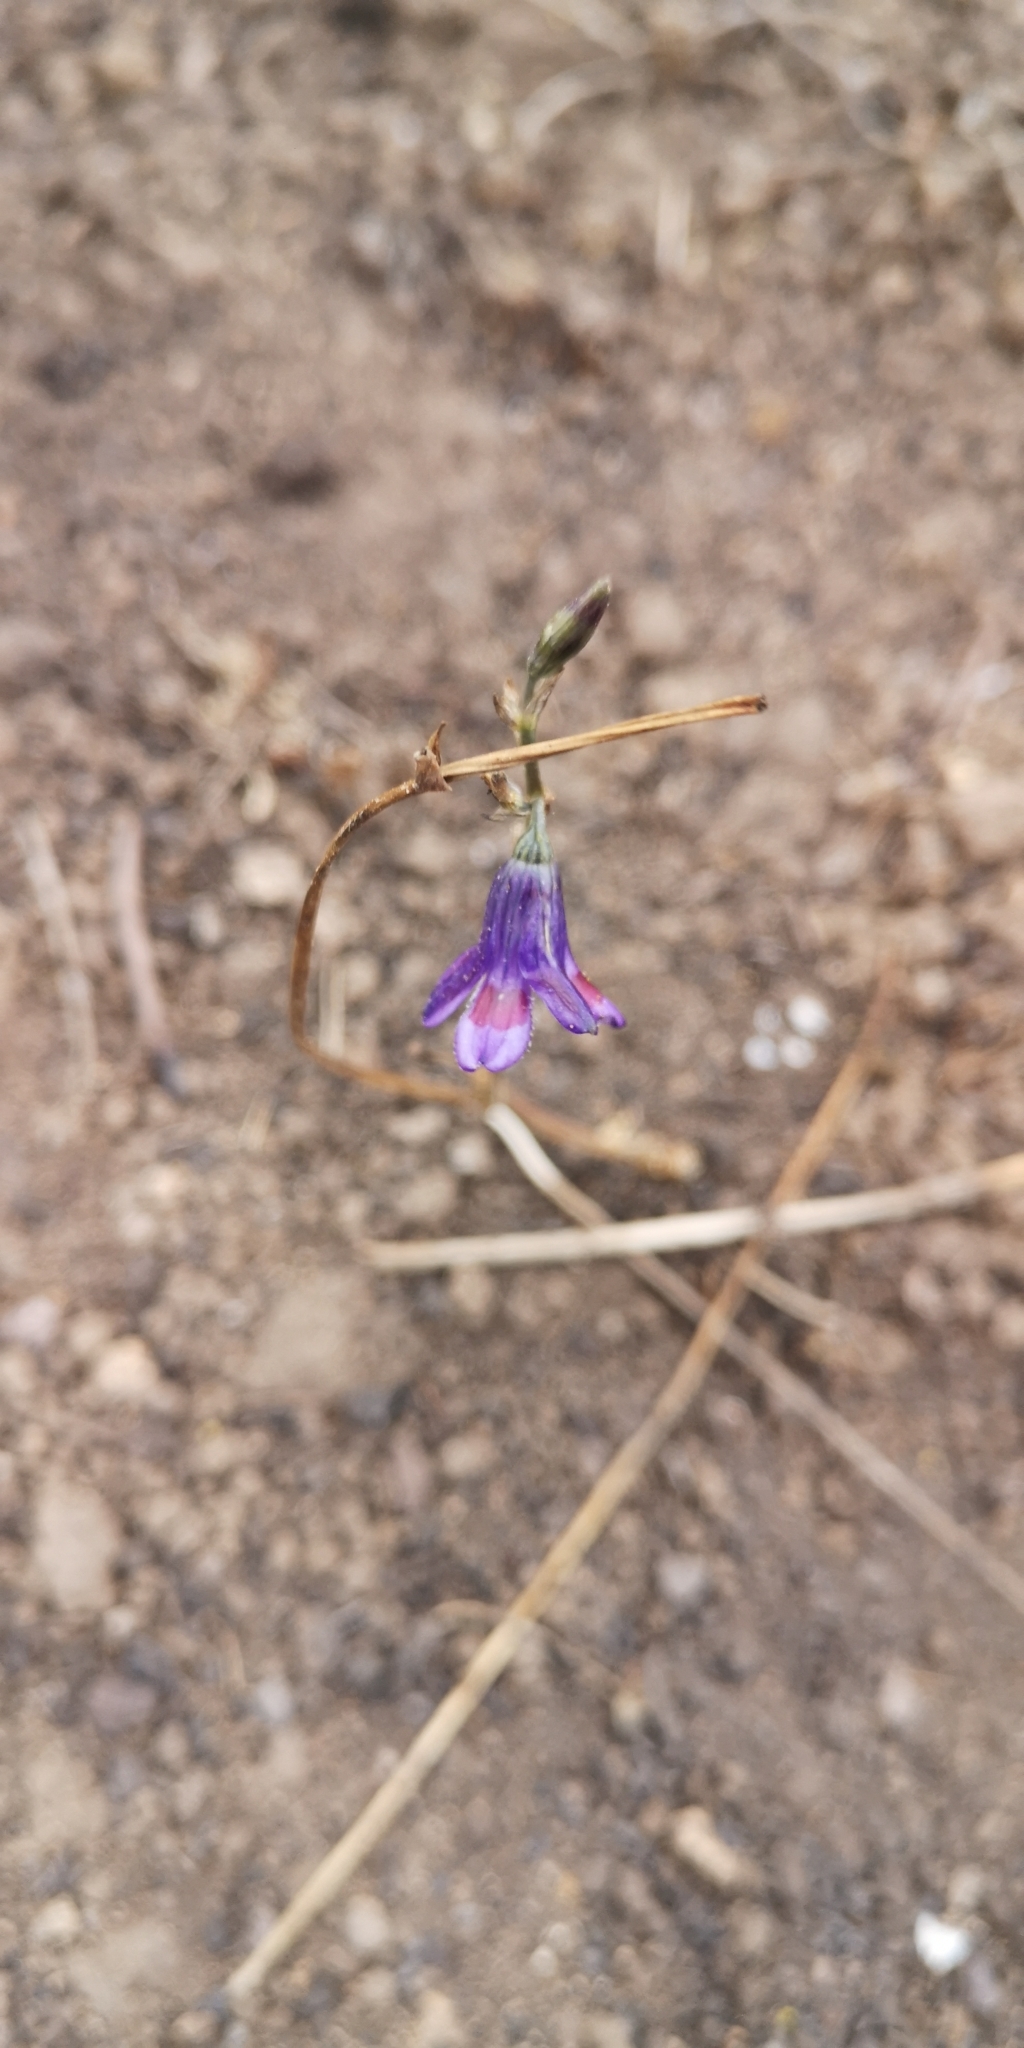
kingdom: Plantae
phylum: Tracheophyta
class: Liliopsida
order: Asparagales
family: Tecophilaeaceae
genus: Conanthera
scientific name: Conanthera trimaculata
